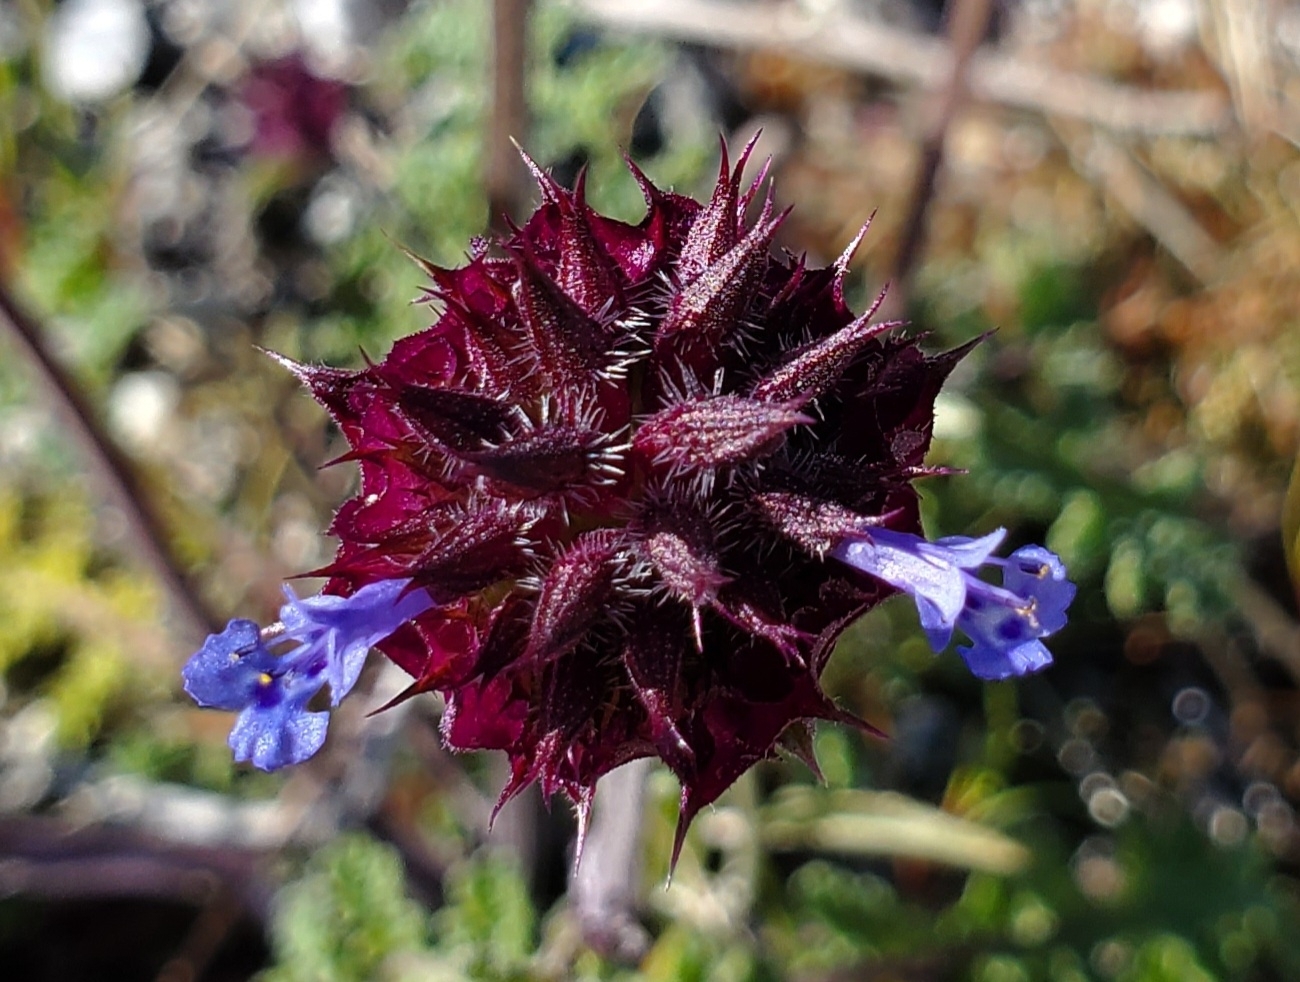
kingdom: Plantae
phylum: Tracheophyta
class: Magnoliopsida
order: Lamiales
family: Lamiaceae
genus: Salvia
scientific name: Salvia columbariae
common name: Chia
